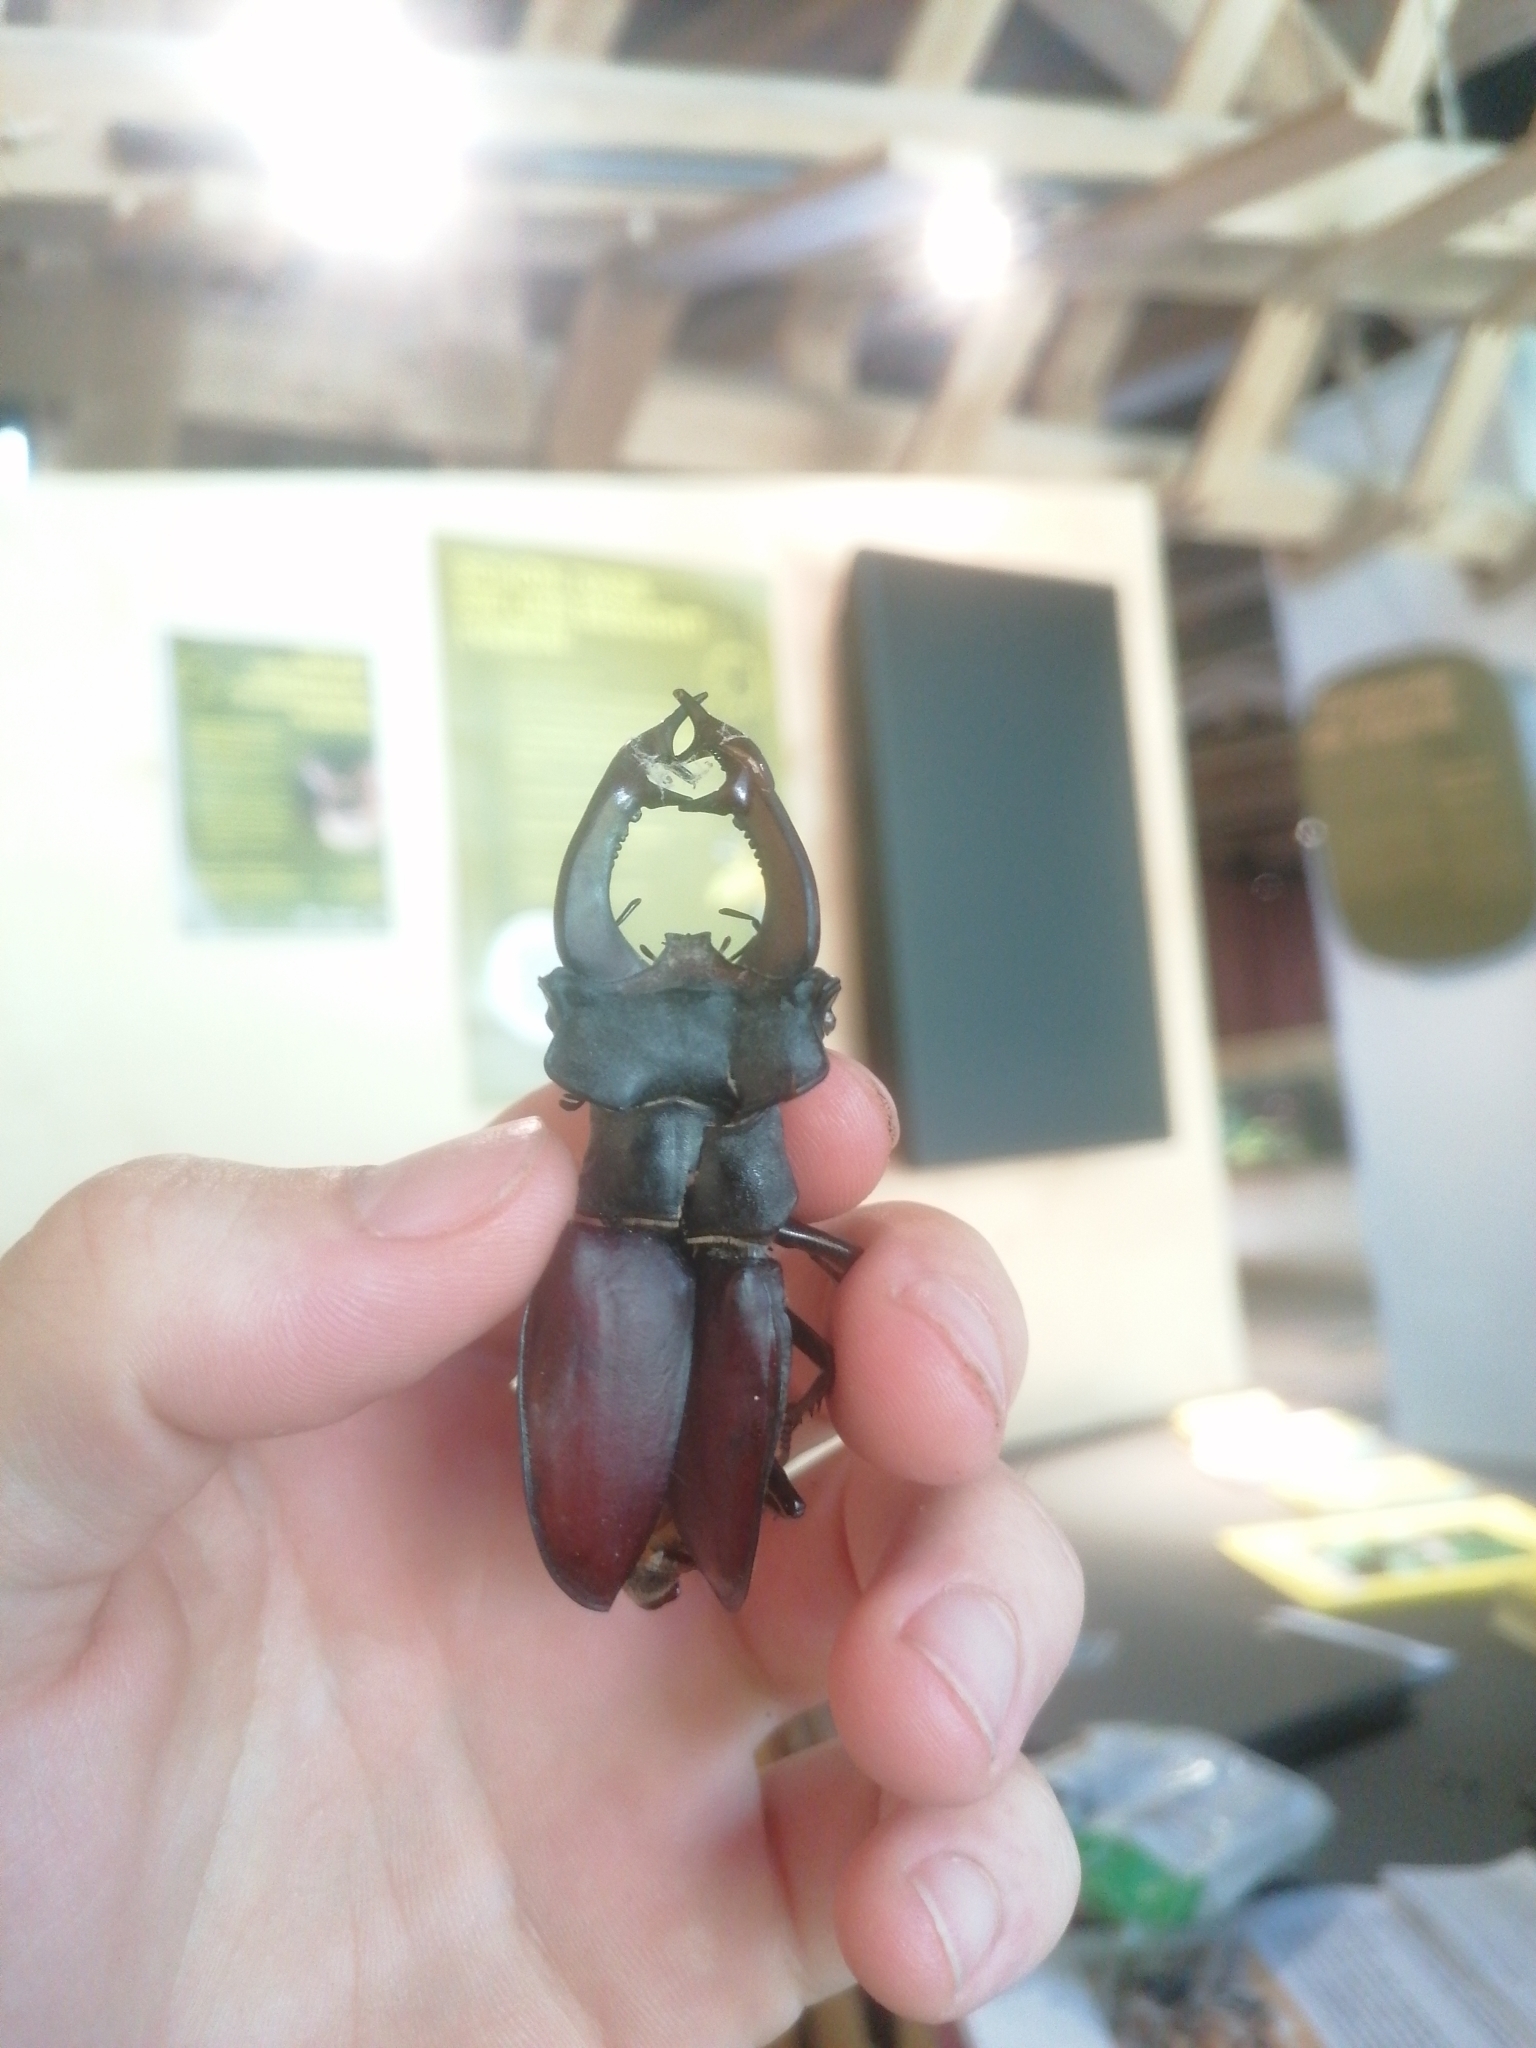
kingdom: Animalia
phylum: Arthropoda
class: Insecta
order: Coleoptera
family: Lucanidae
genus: Lucanus
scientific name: Lucanus cervus
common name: Stag beetle
